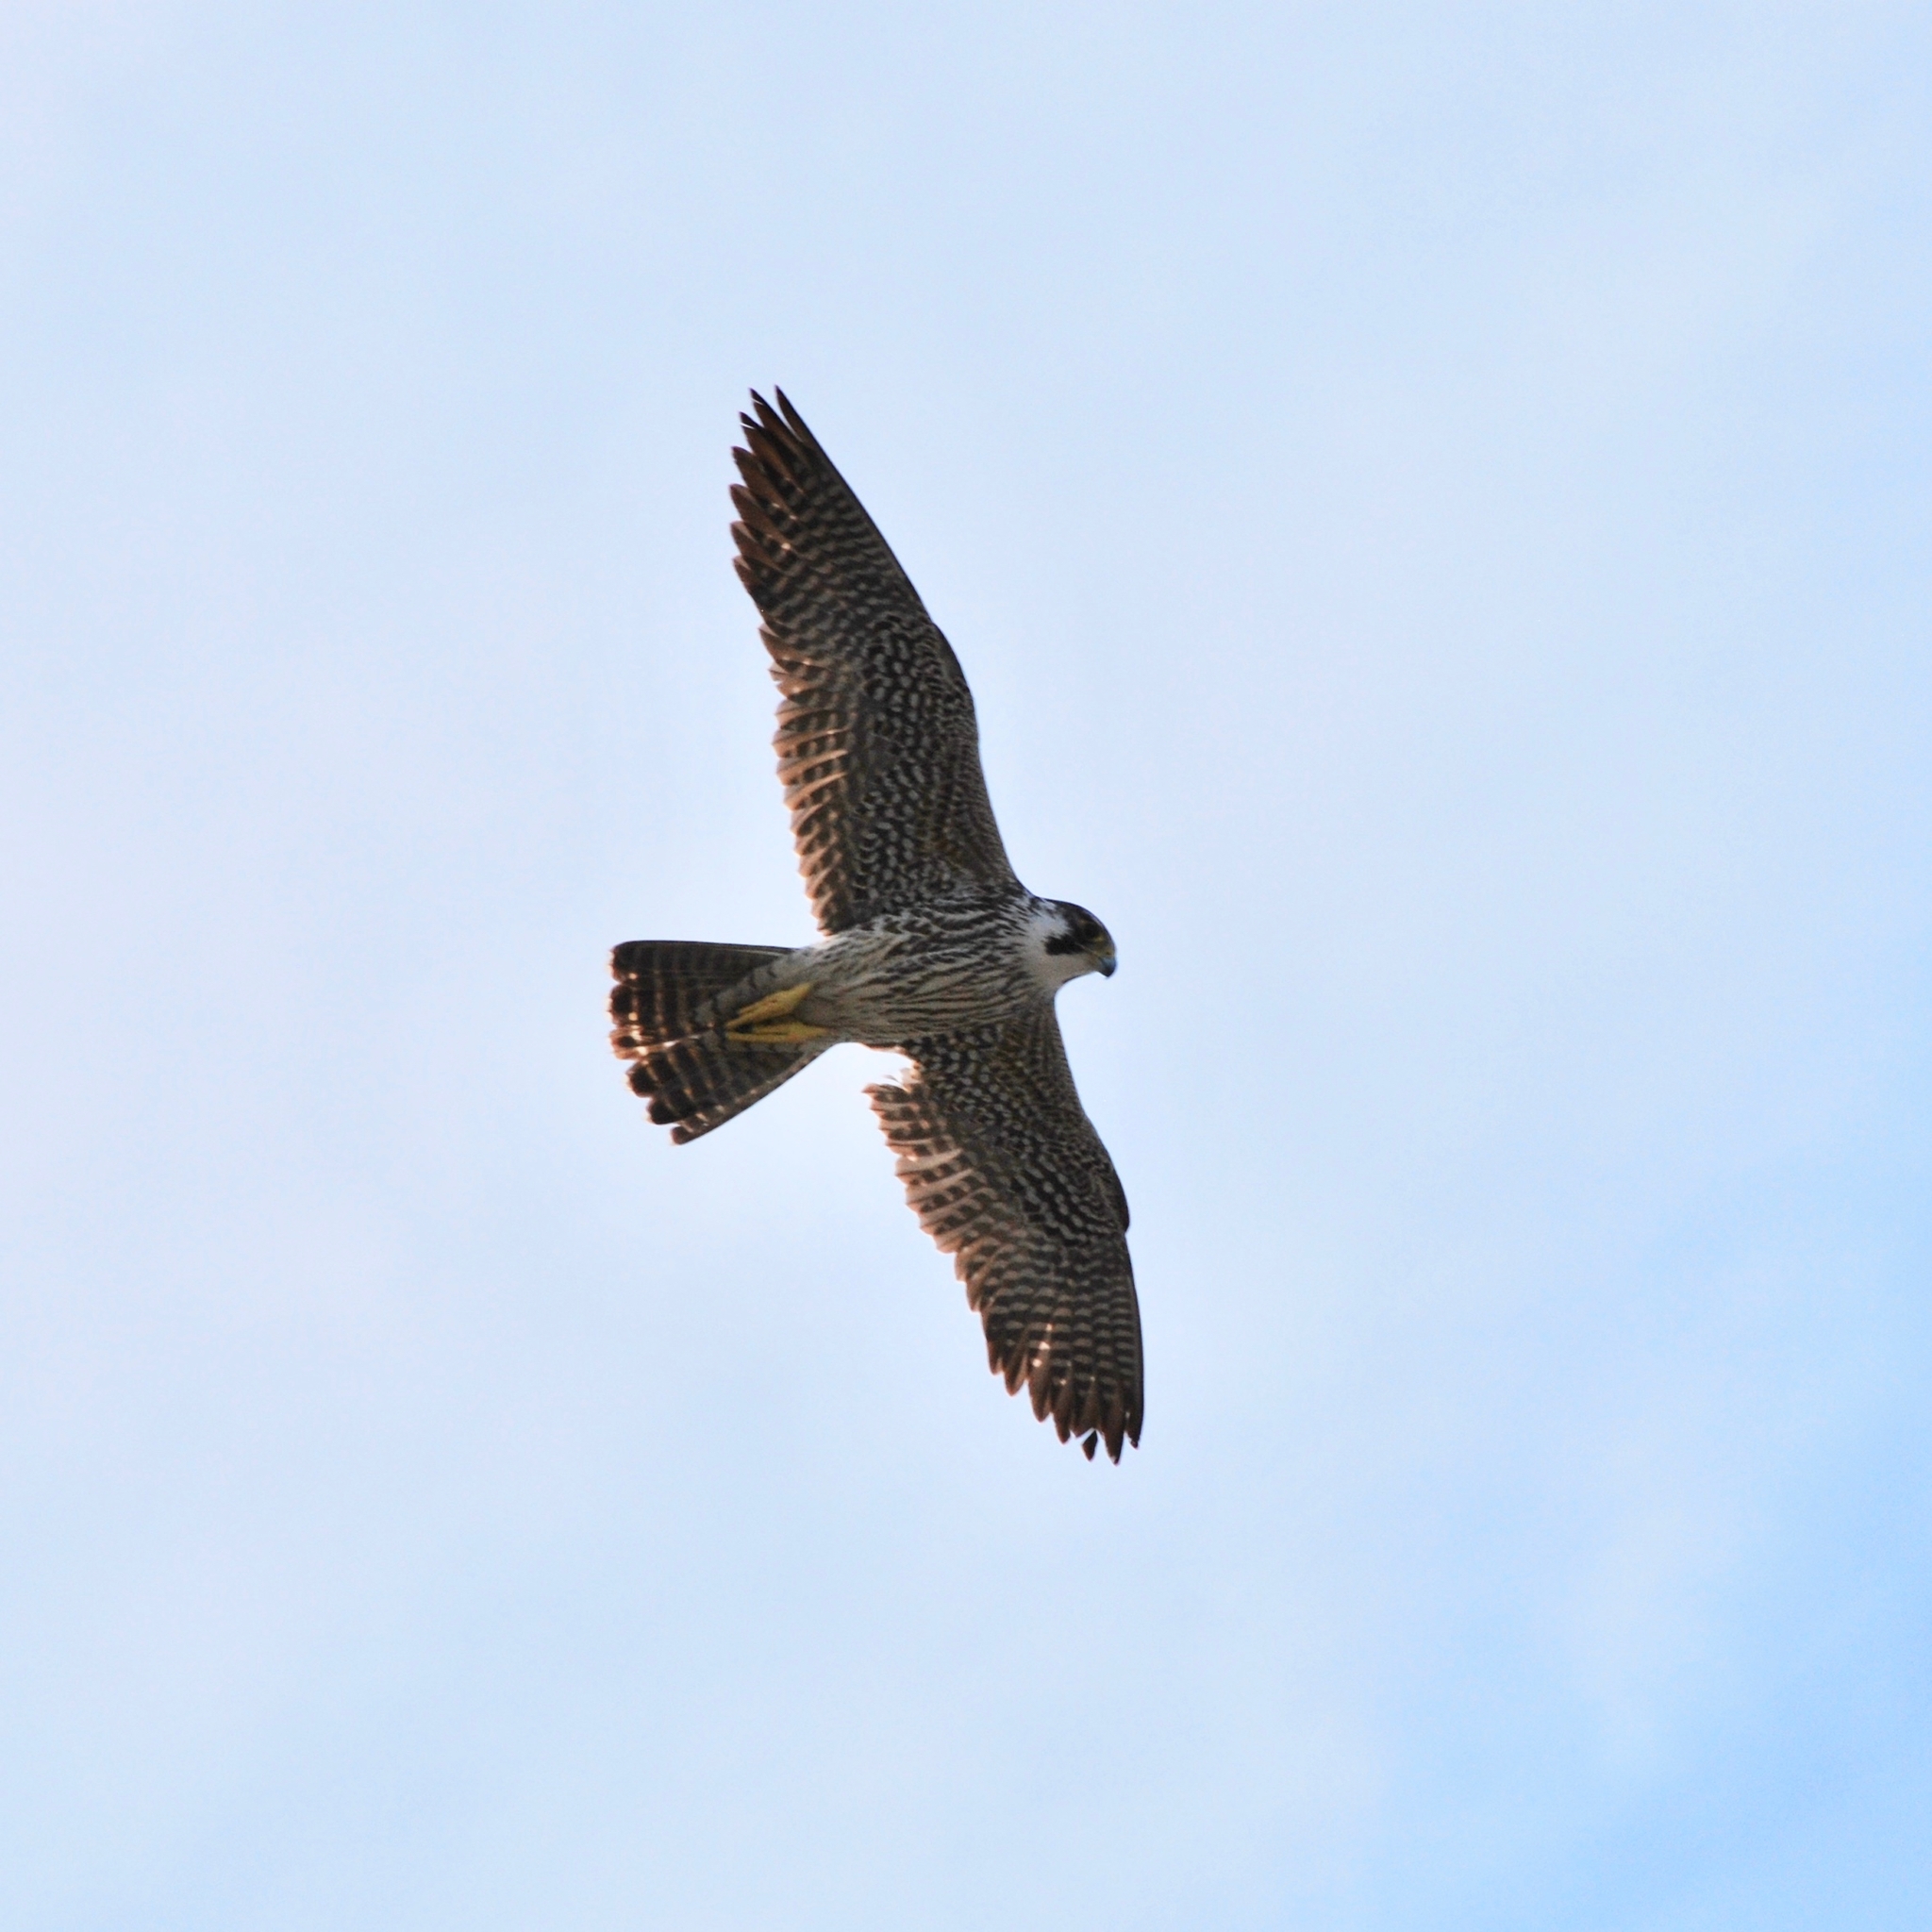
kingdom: Animalia
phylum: Chordata
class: Aves
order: Falconiformes
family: Falconidae
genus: Falco
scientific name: Falco peregrinus
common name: Peregrine falcon
